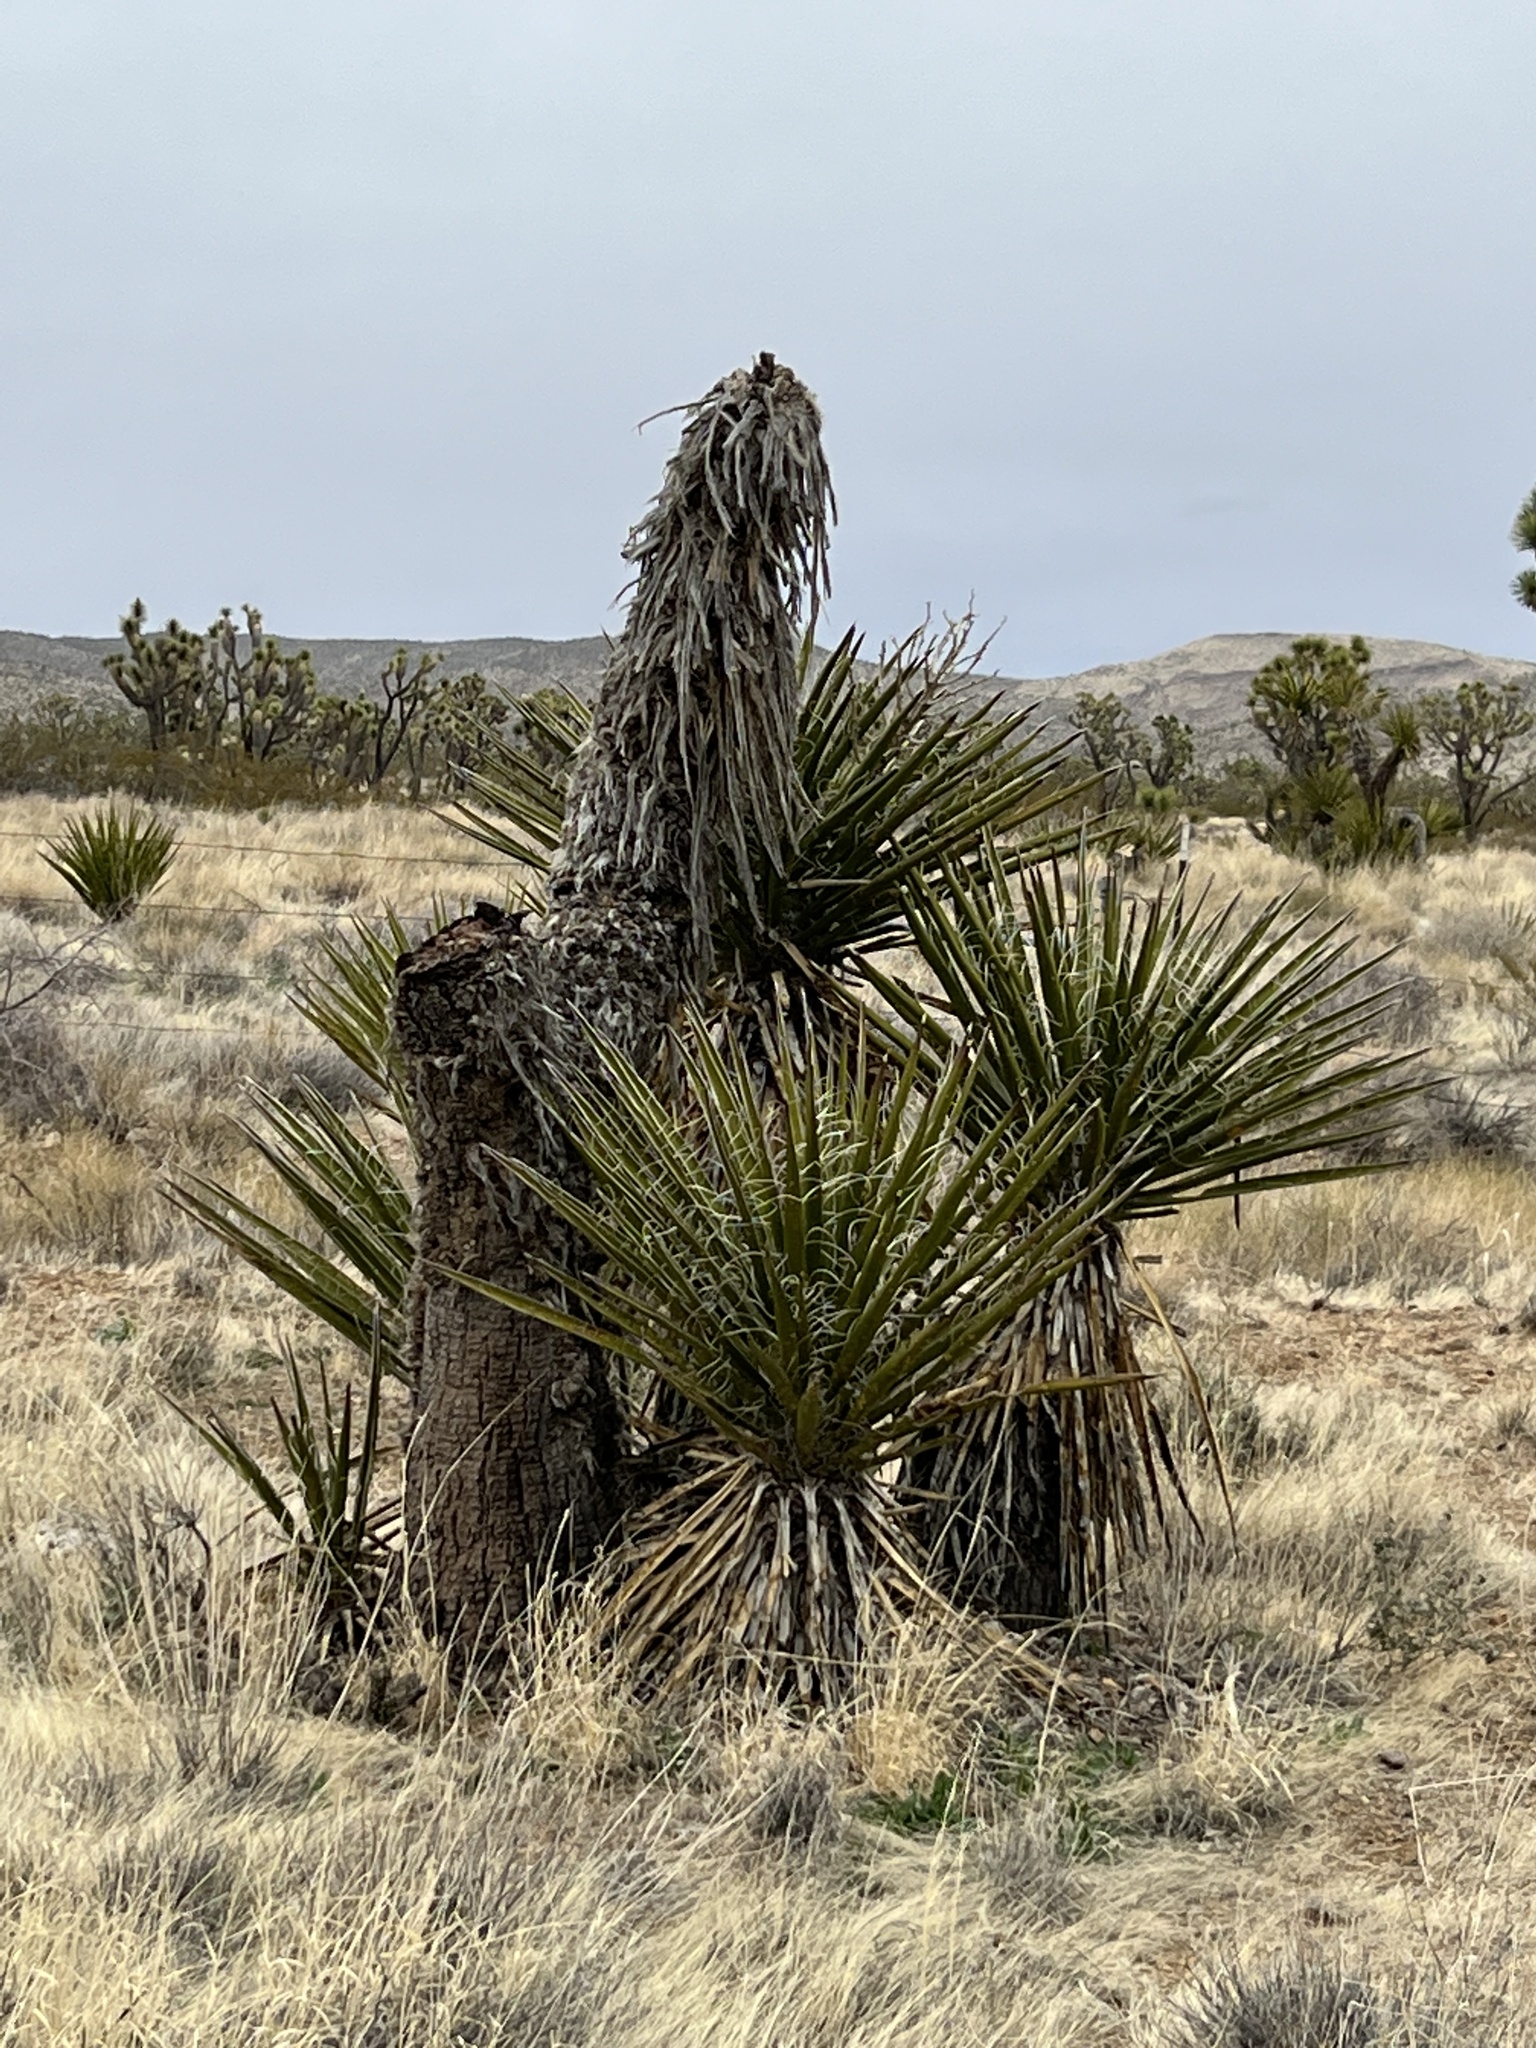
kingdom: Plantae
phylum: Tracheophyta
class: Liliopsida
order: Asparagales
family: Asparagaceae
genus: Yucca
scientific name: Yucca schidigera
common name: Mojave yucca
